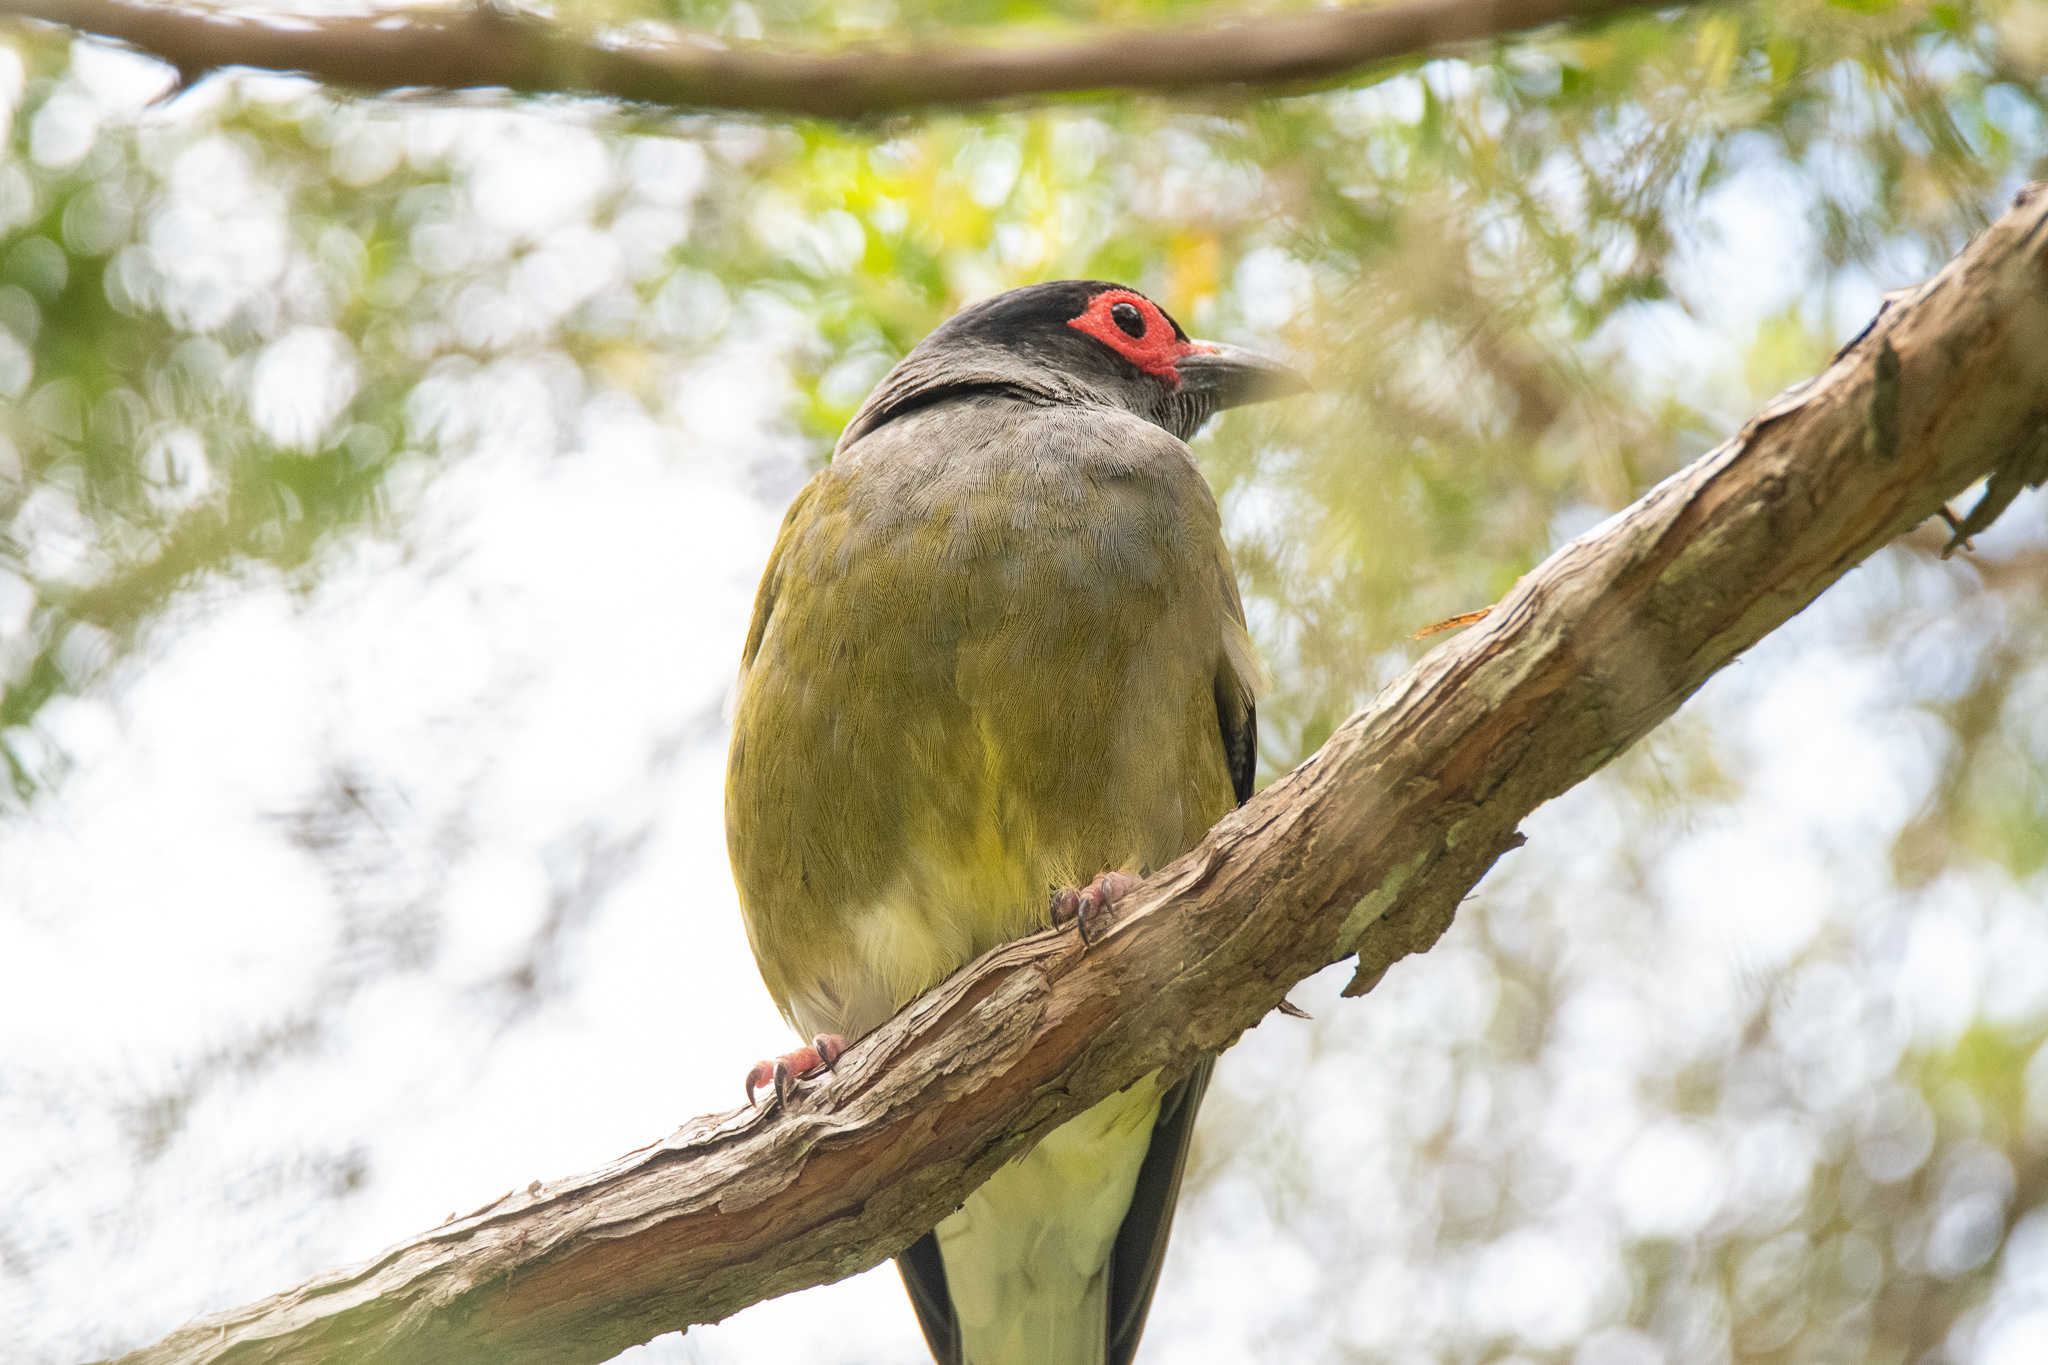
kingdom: Animalia
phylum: Chordata
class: Aves
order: Passeriformes
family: Oriolidae
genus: Sphecotheres
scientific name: Sphecotheres vieilloti
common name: Australasian figbird
